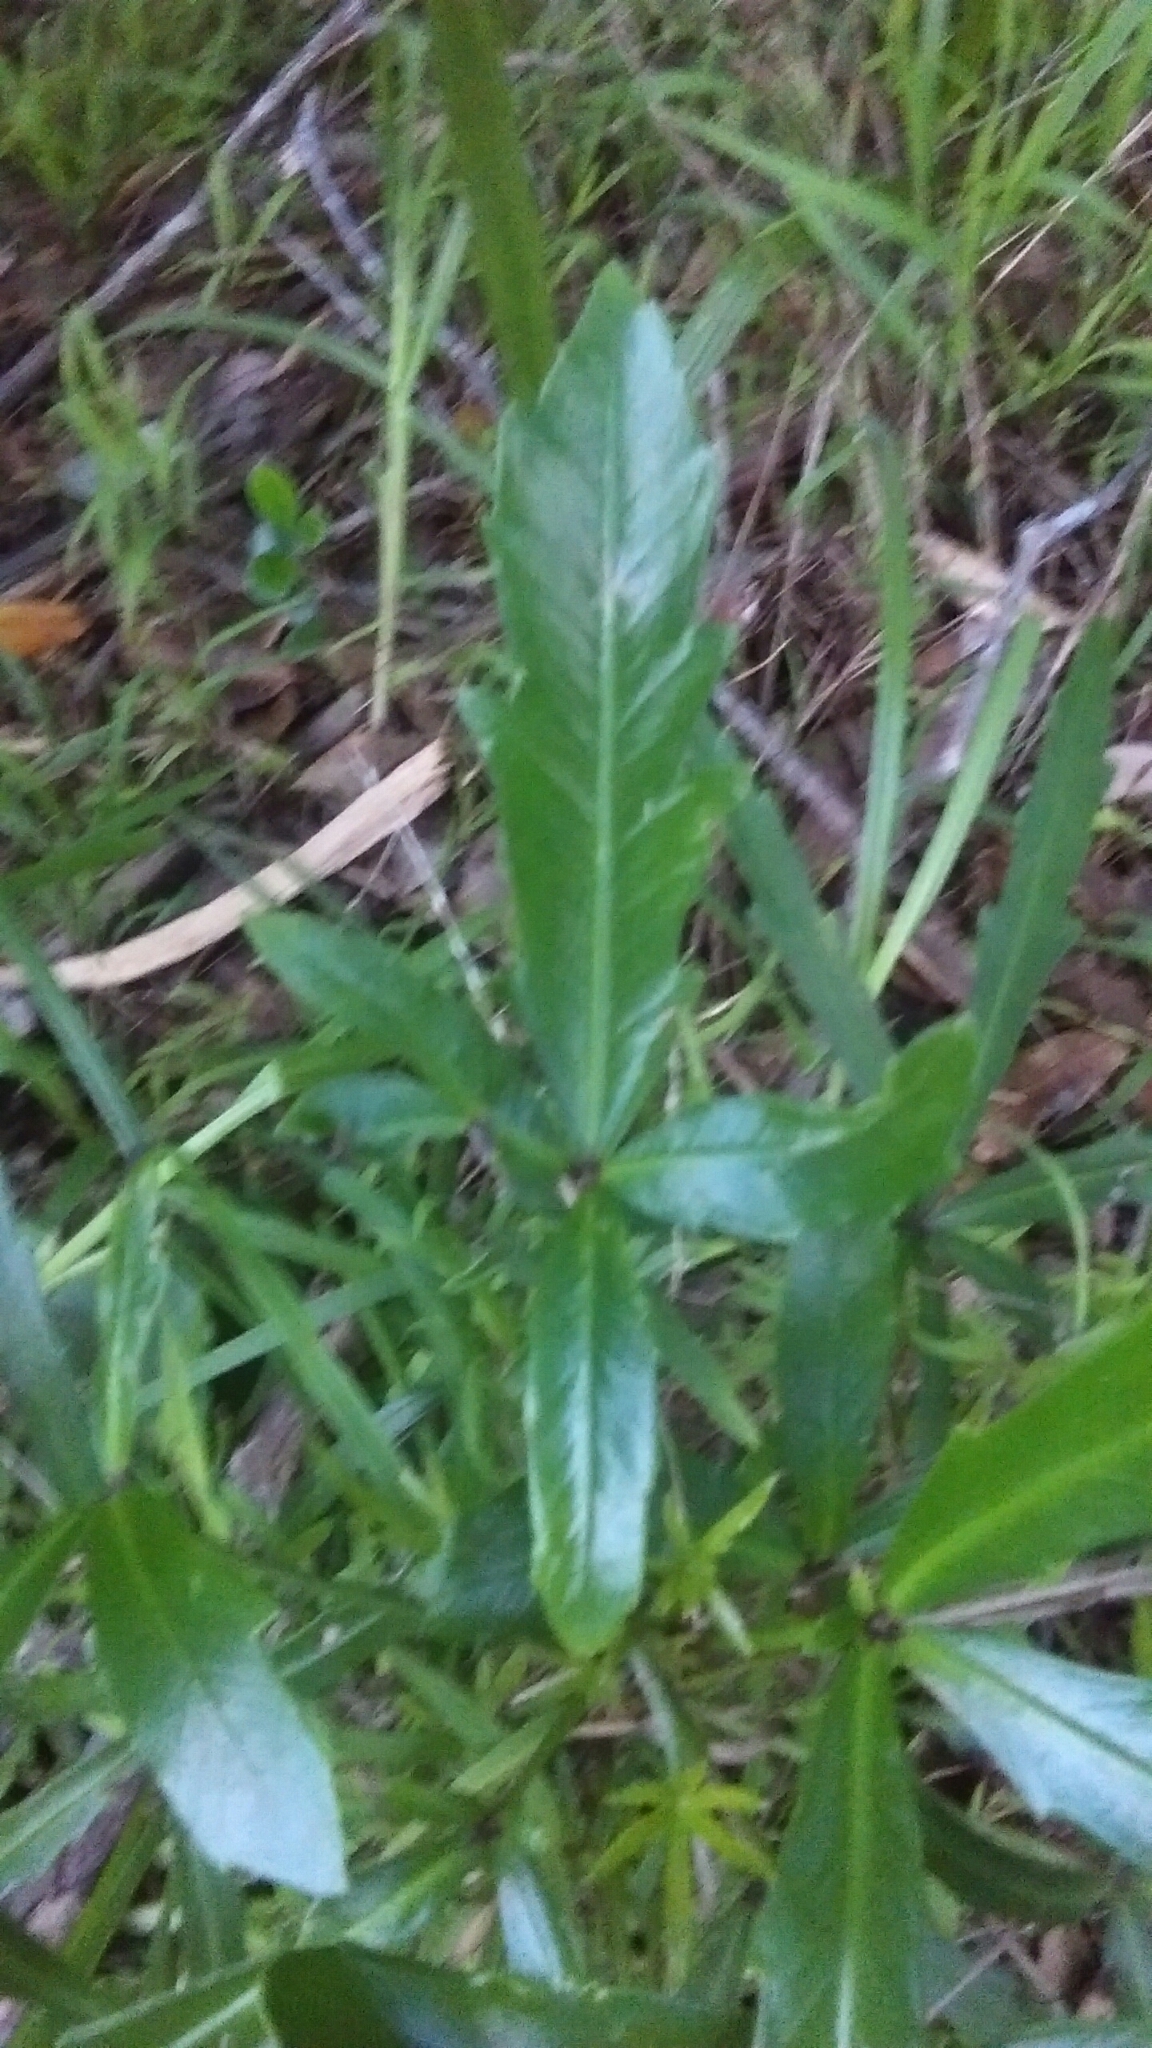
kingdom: Plantae
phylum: Tracheophyta
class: Magnoliopsida
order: Apiales
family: Araliaceae
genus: Pseudopanax
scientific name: Pseudopanax
